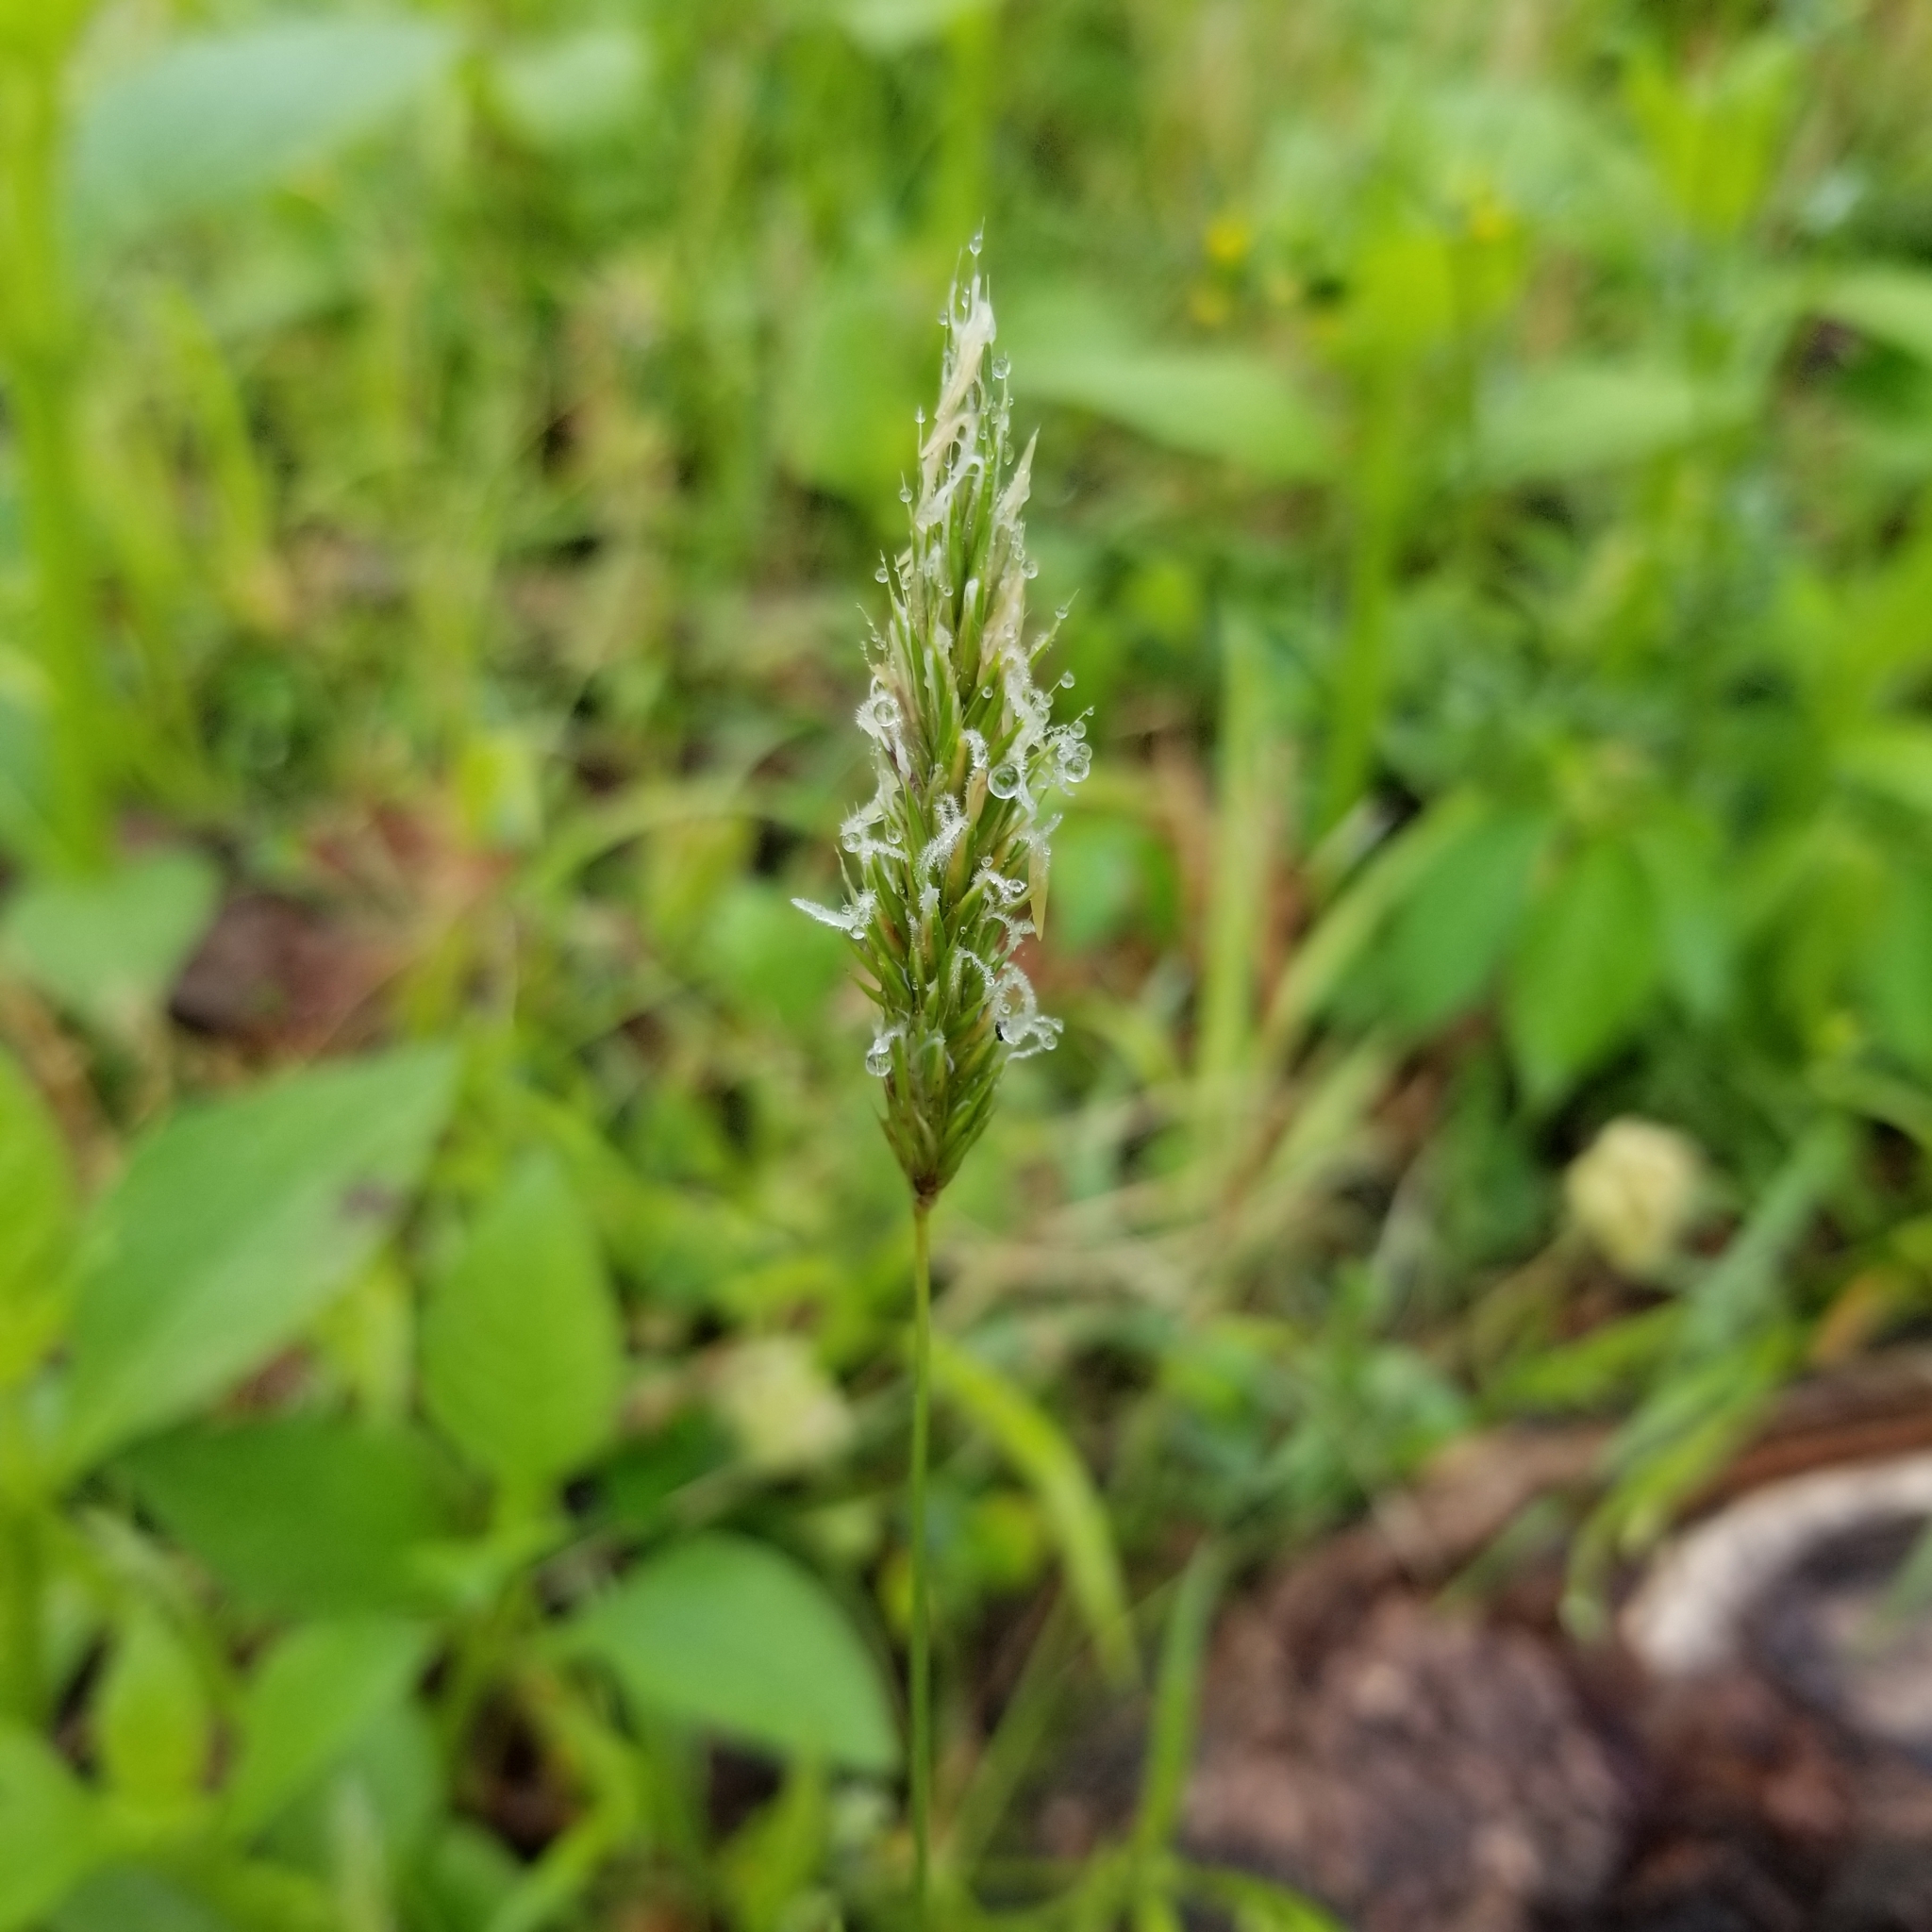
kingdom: Plantae
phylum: Tracheophyta
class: Liliopsida
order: Poales
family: Poaceae
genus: Anthoxanthum
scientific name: Anthoxanthum odoratum
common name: Sweet vernalgrass
